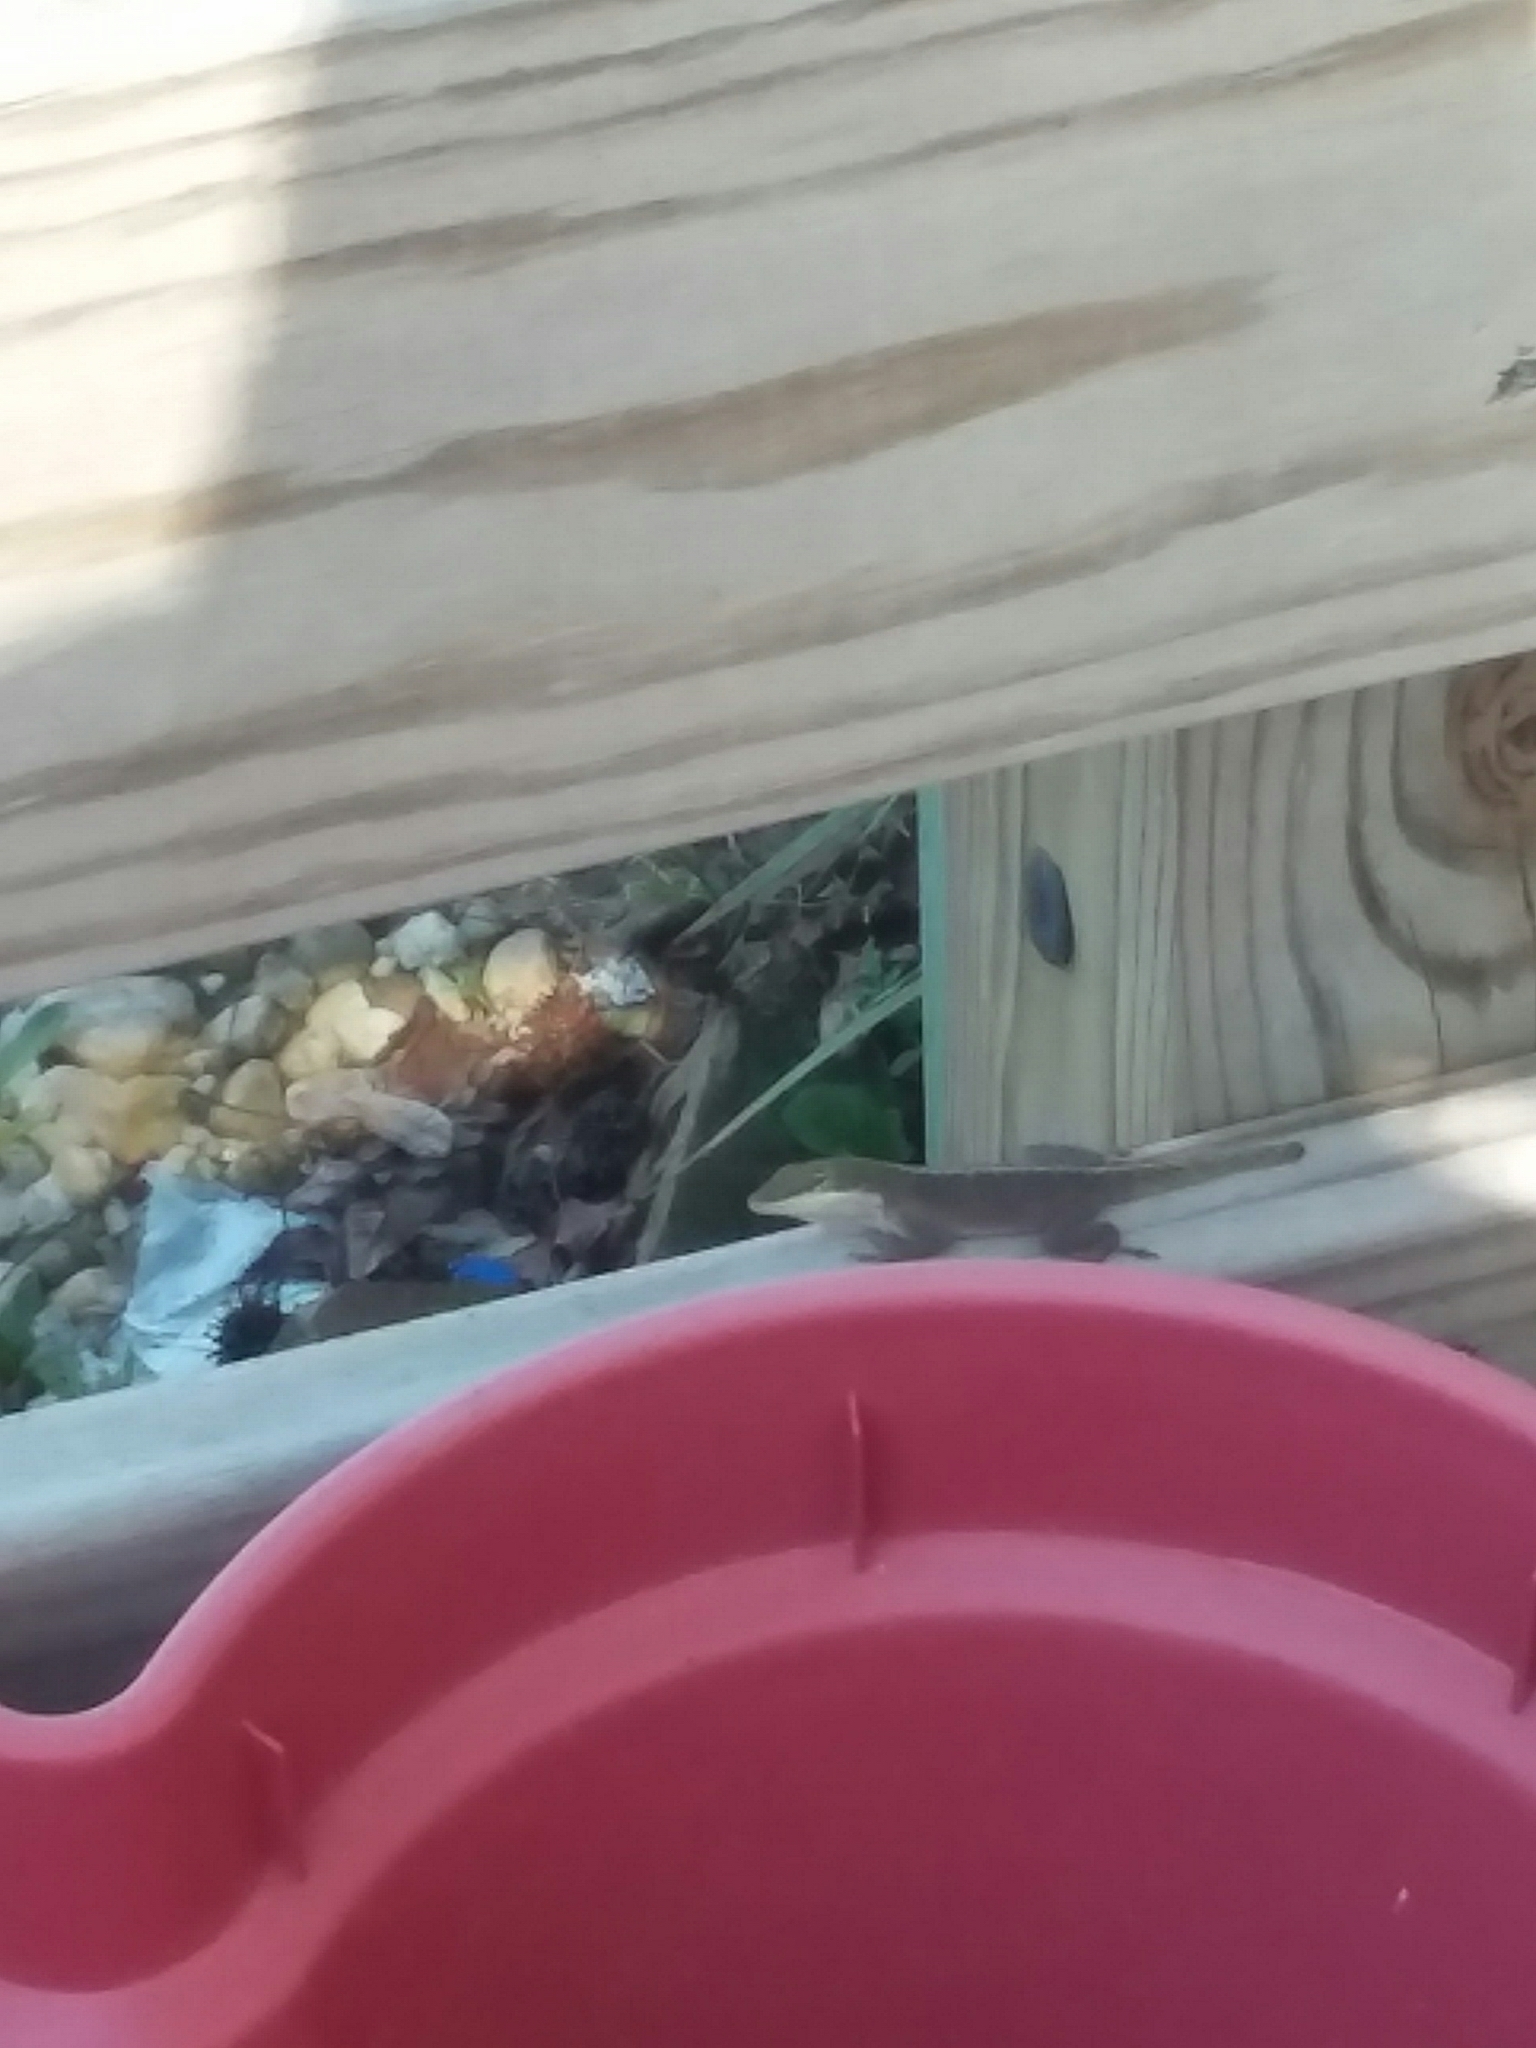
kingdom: Animalia
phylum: Chordata
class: Squamata
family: Dactyloidae
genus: Anolis
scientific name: Anolis carolinensis
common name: Green anole
